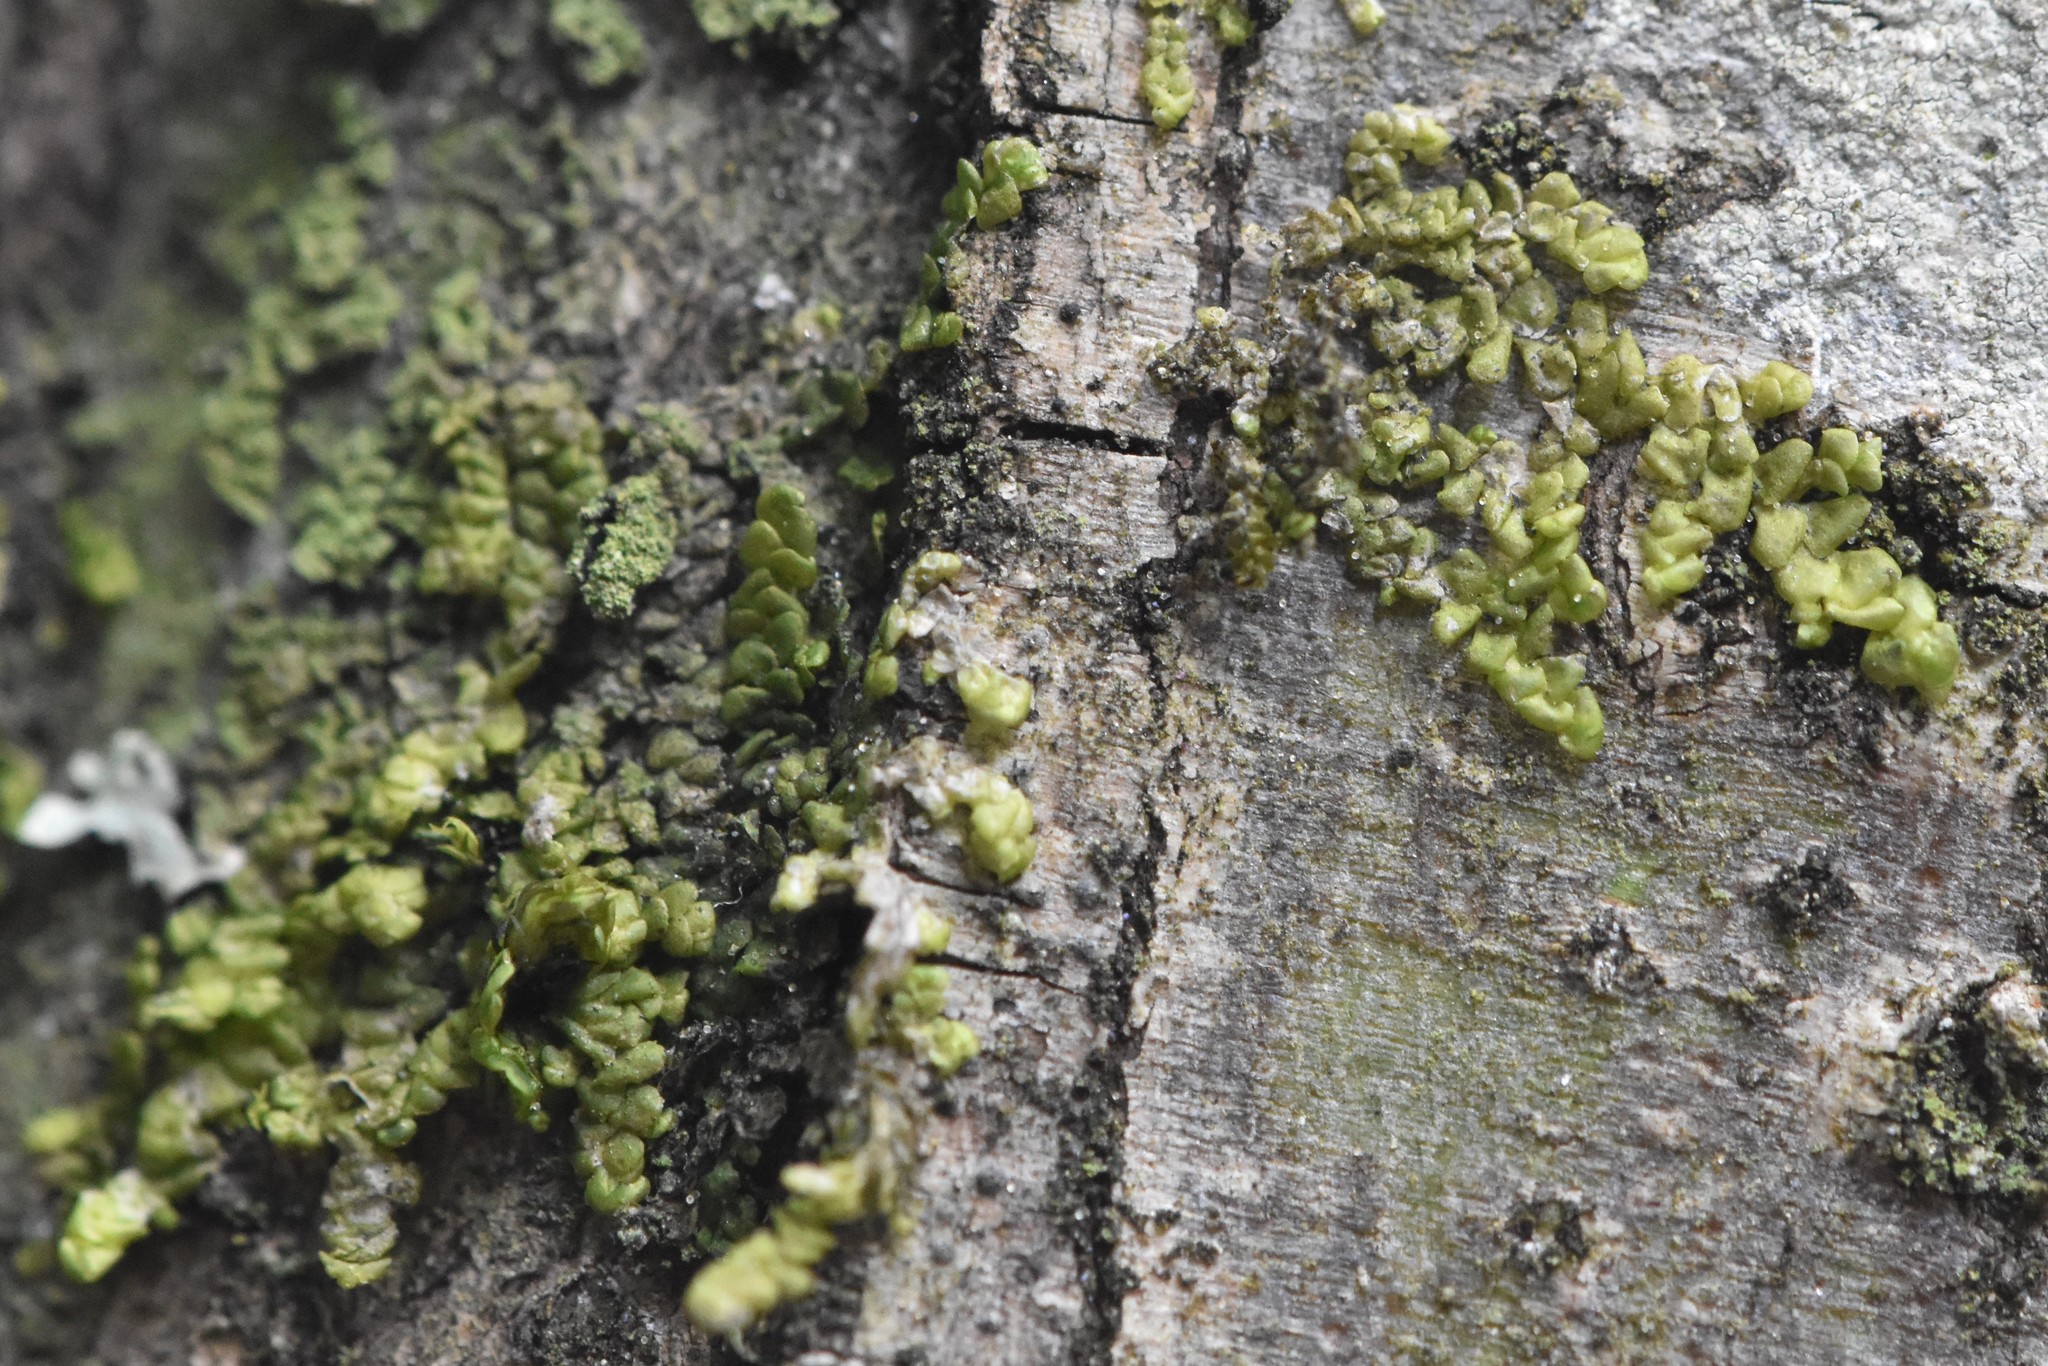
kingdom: Plantae
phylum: Marchantiophyta
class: Jungermanniopsida
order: Porellales
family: Radulaceae
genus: Radula
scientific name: Radula complanata
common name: Flat-leaved scalewort
